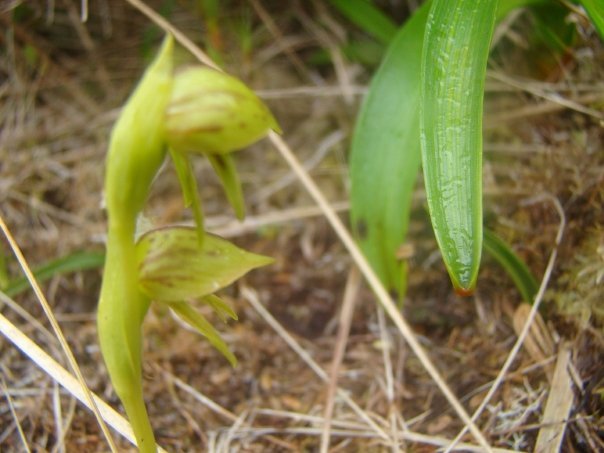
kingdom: Plantae
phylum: Tracheophyta
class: Liliopsida
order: Asparagales
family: Orchidaceae
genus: Waireia
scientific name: Waireia stenopetala
